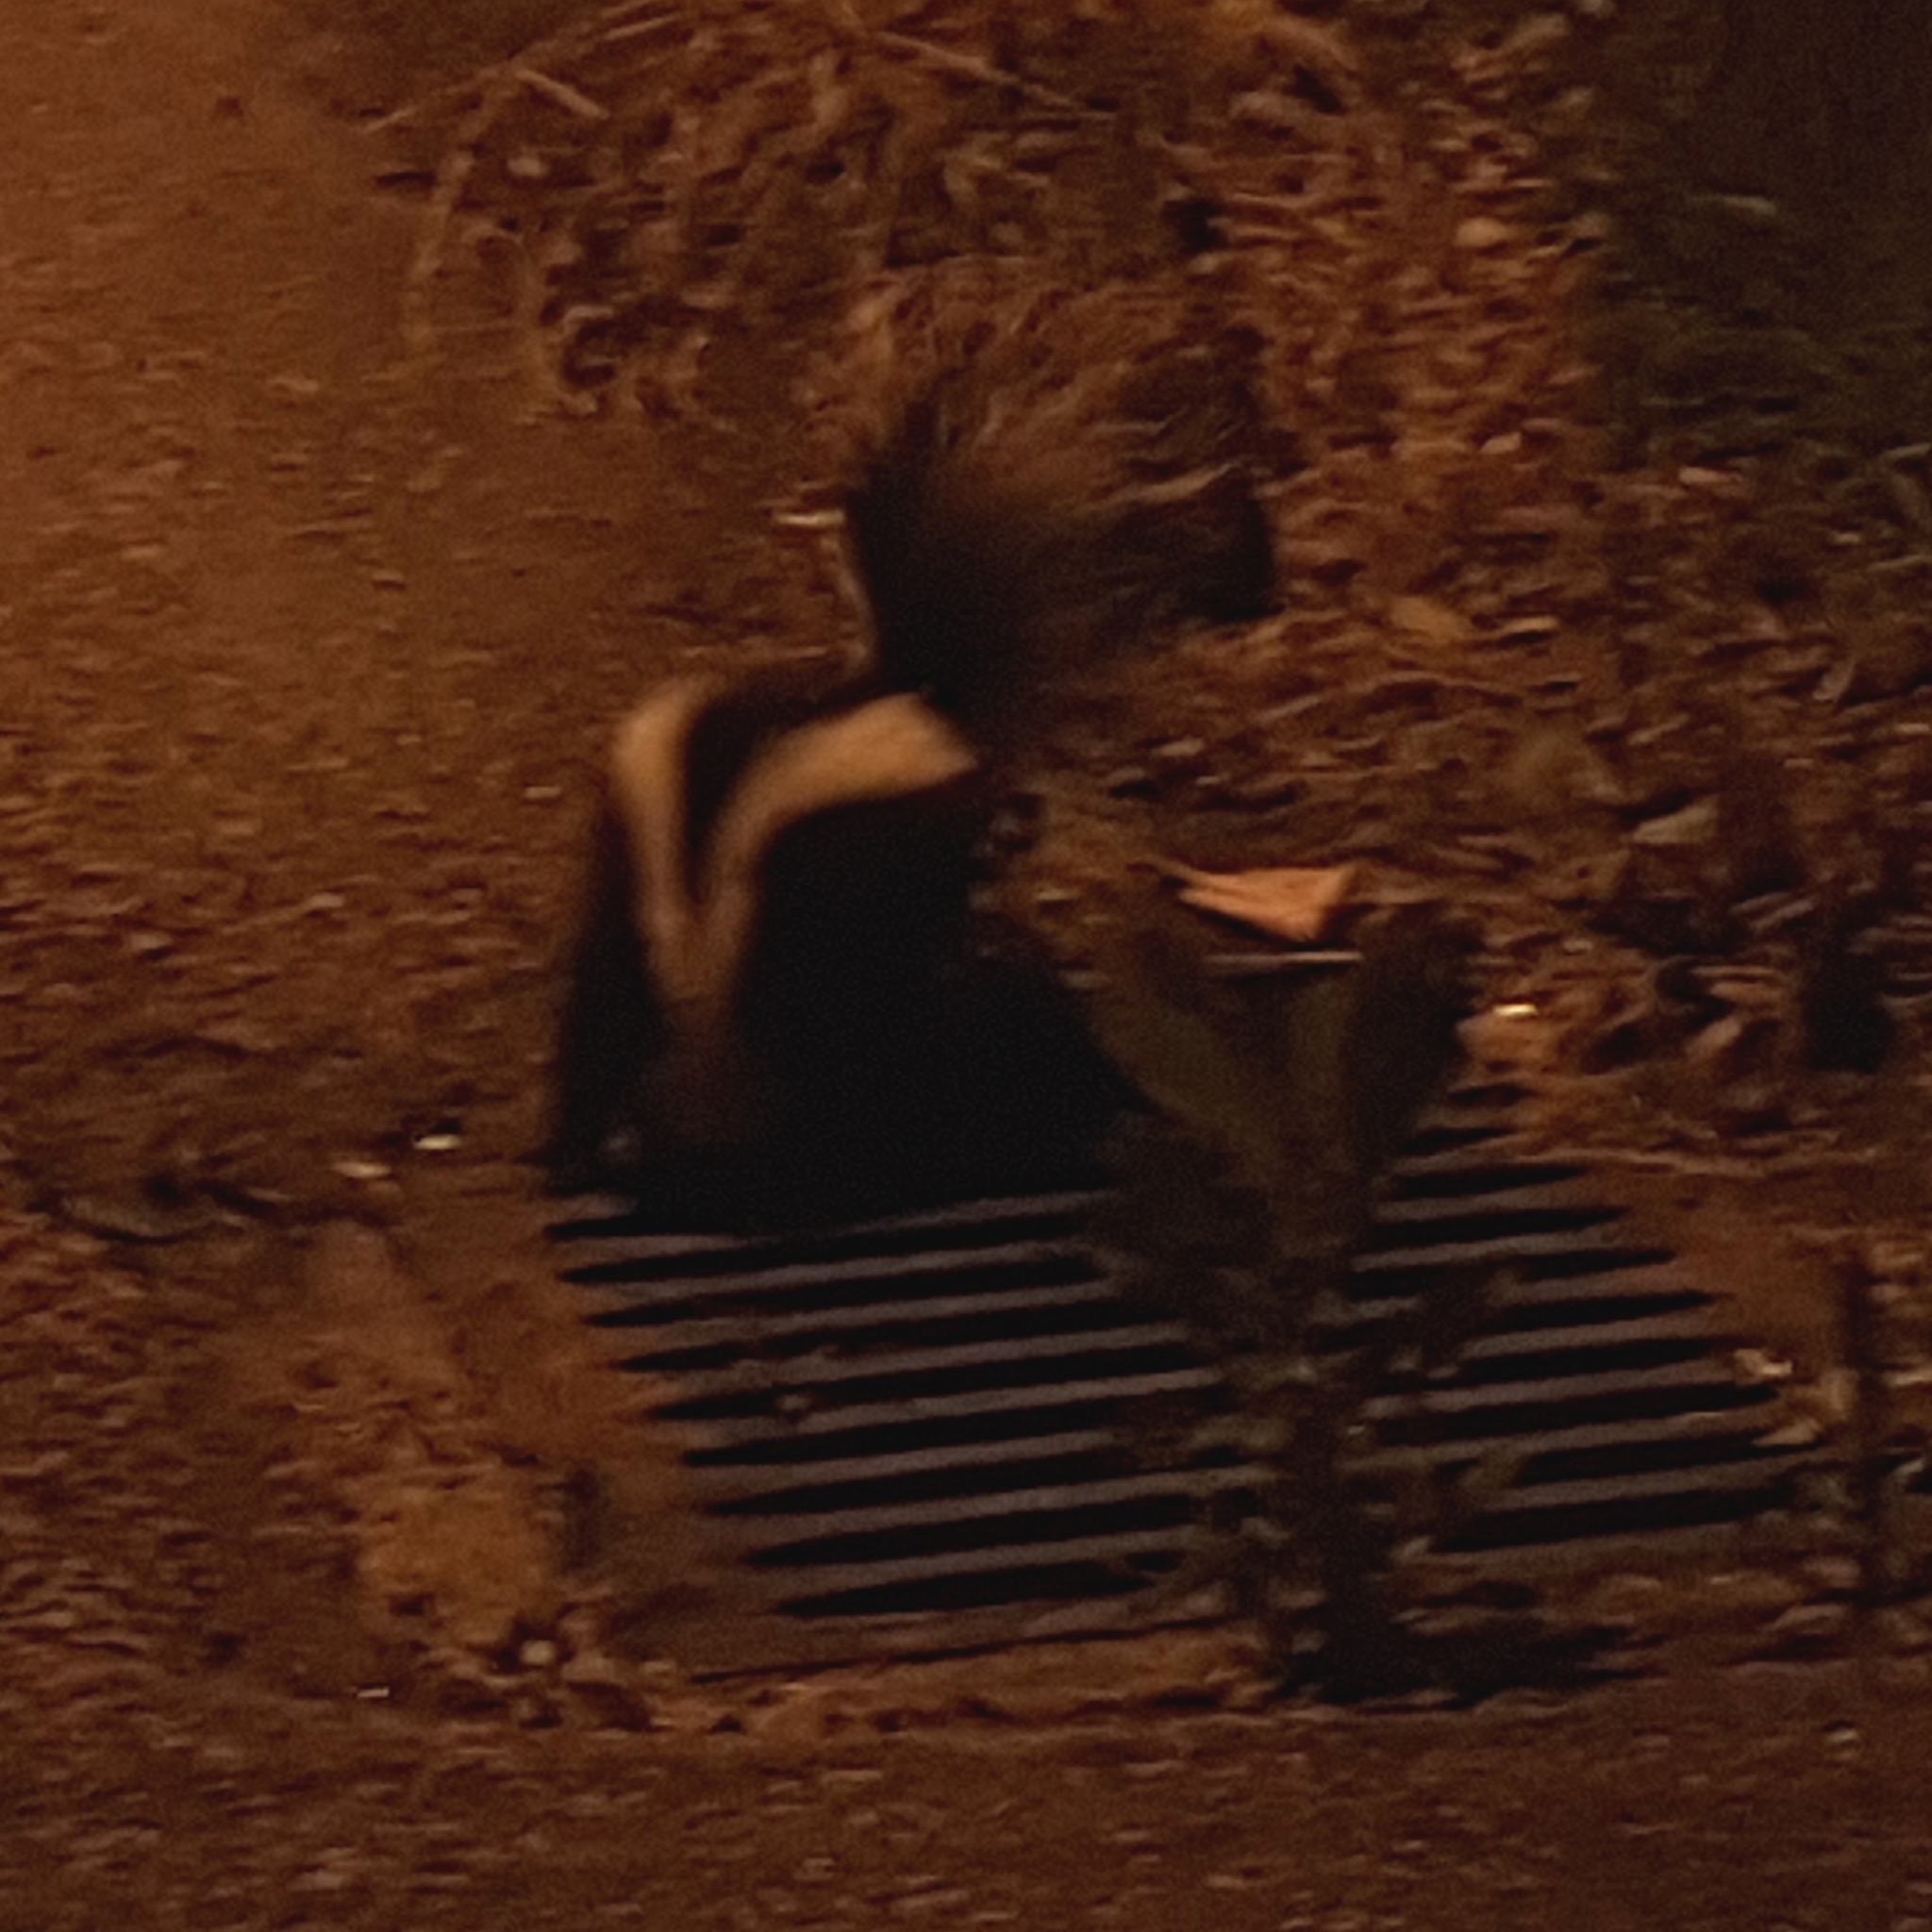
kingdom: Animalia
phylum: Chordata
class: Mammalia
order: Carnivora
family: Mephitidae
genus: Mephitis
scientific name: Mephitis mephitis
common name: Striped skunk
